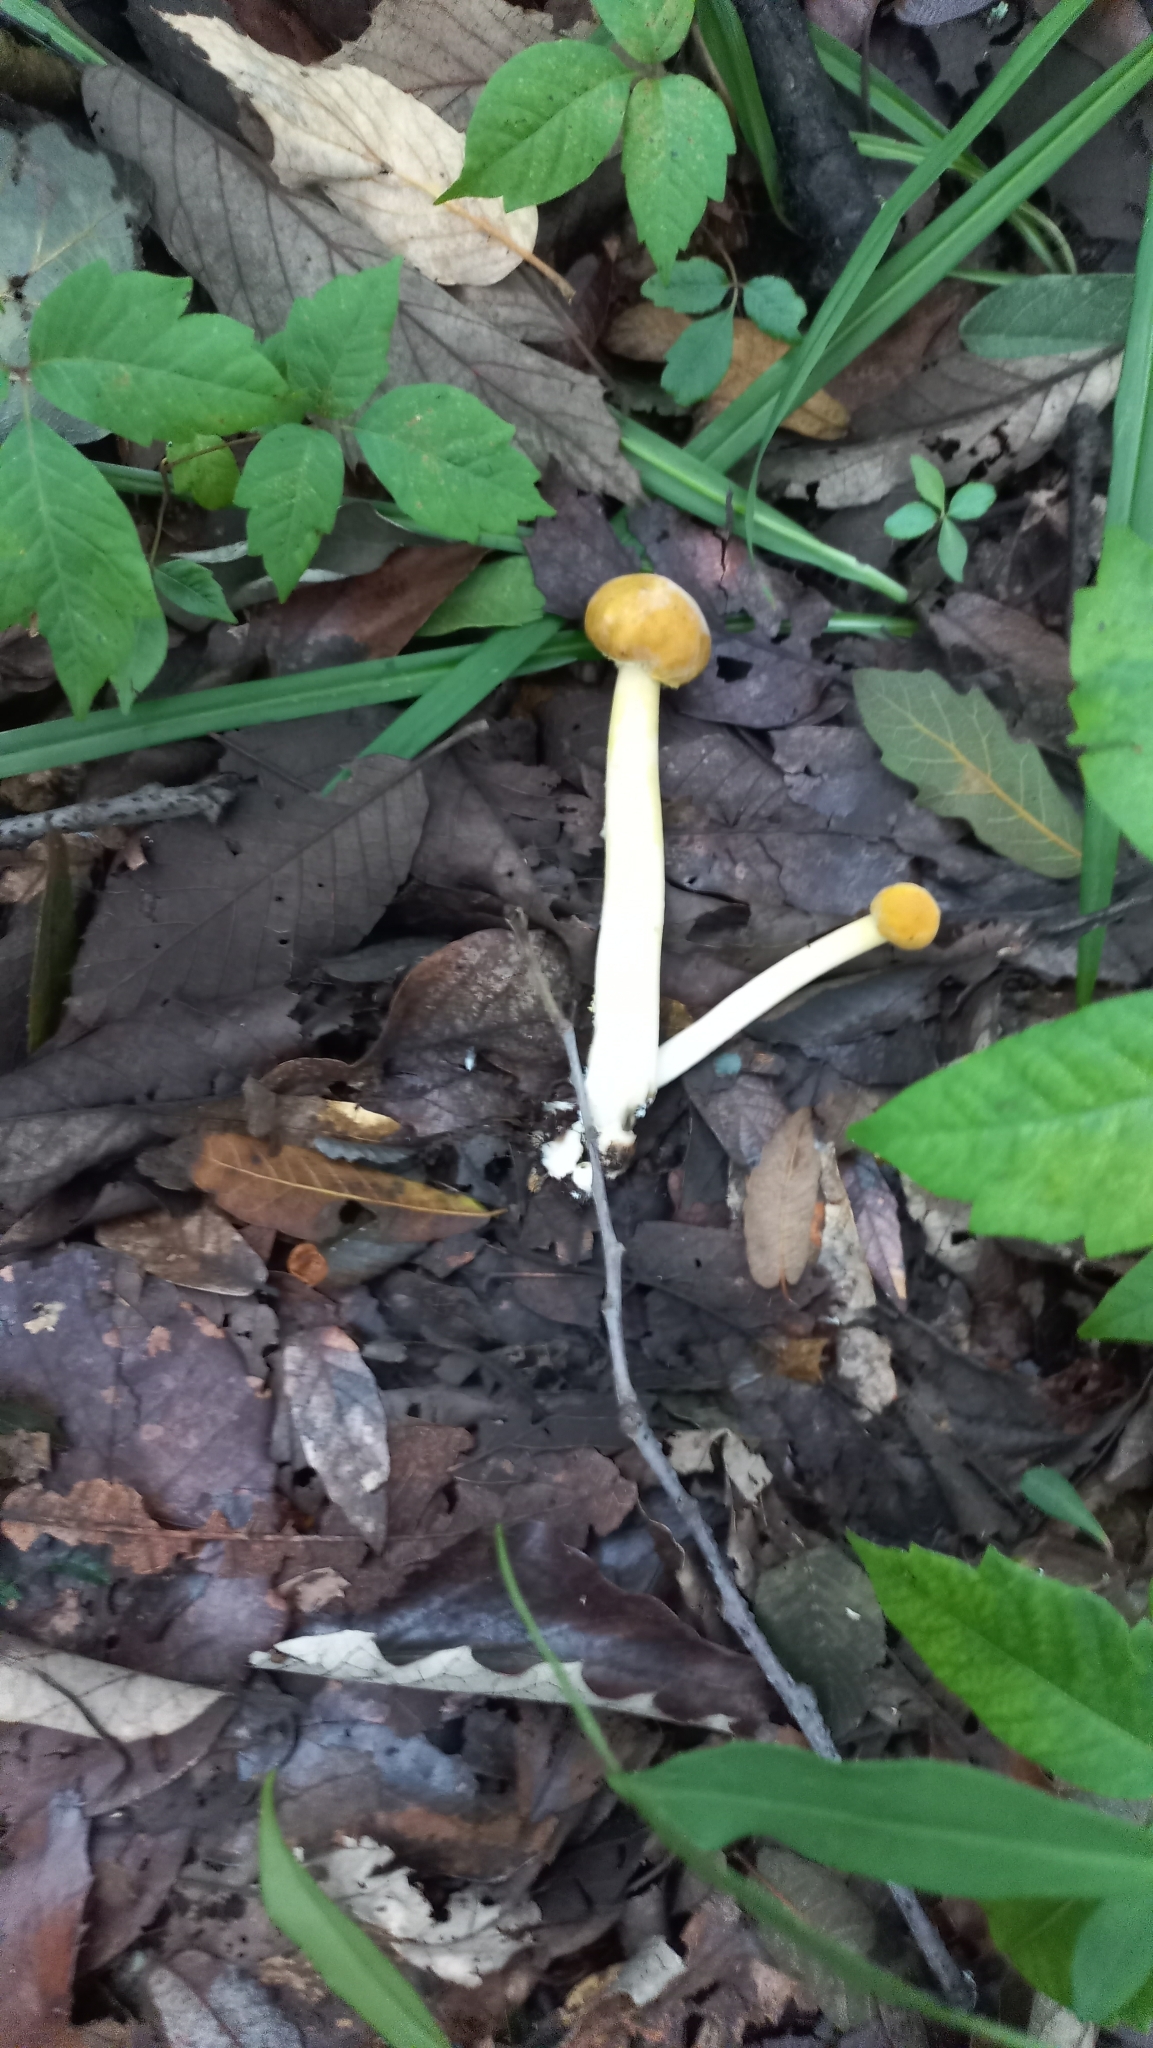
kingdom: Fungi
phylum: Basidiomycota
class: Agaricomycetes
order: Agaricales
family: Bolbitiaceae
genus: Bolbitius
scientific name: Bolbitius titubans
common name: Yellow fieldcap
